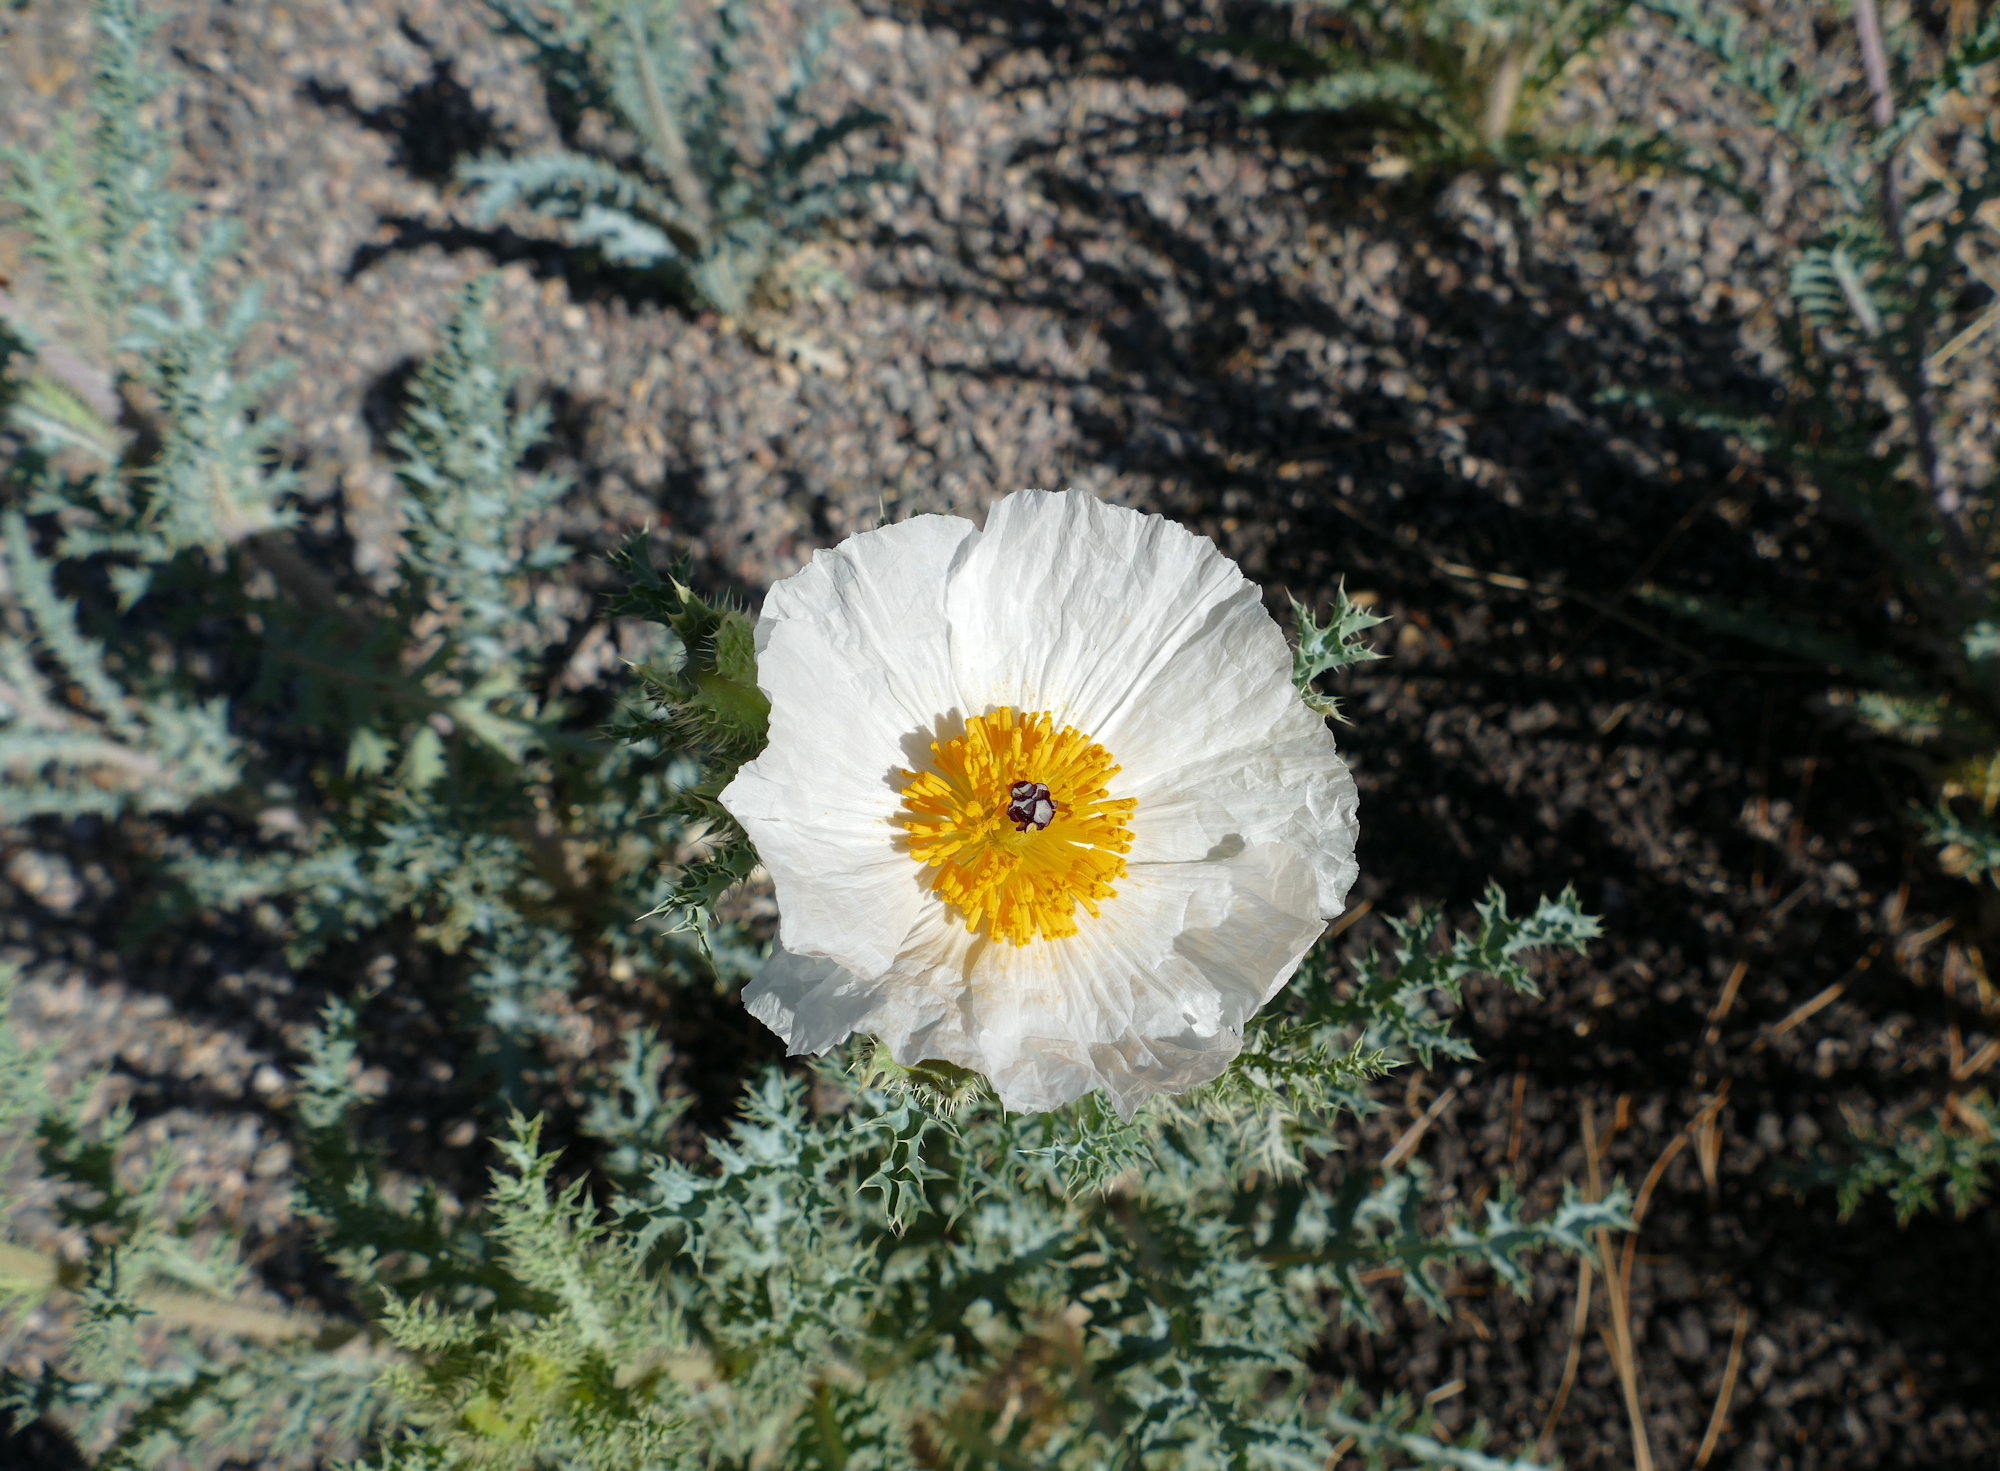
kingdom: Plantae
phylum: Tracheophyta
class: Magnoliopsida
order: Ranunculales
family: Papaveraceae
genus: Argemone
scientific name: Argemone pleiacantha
